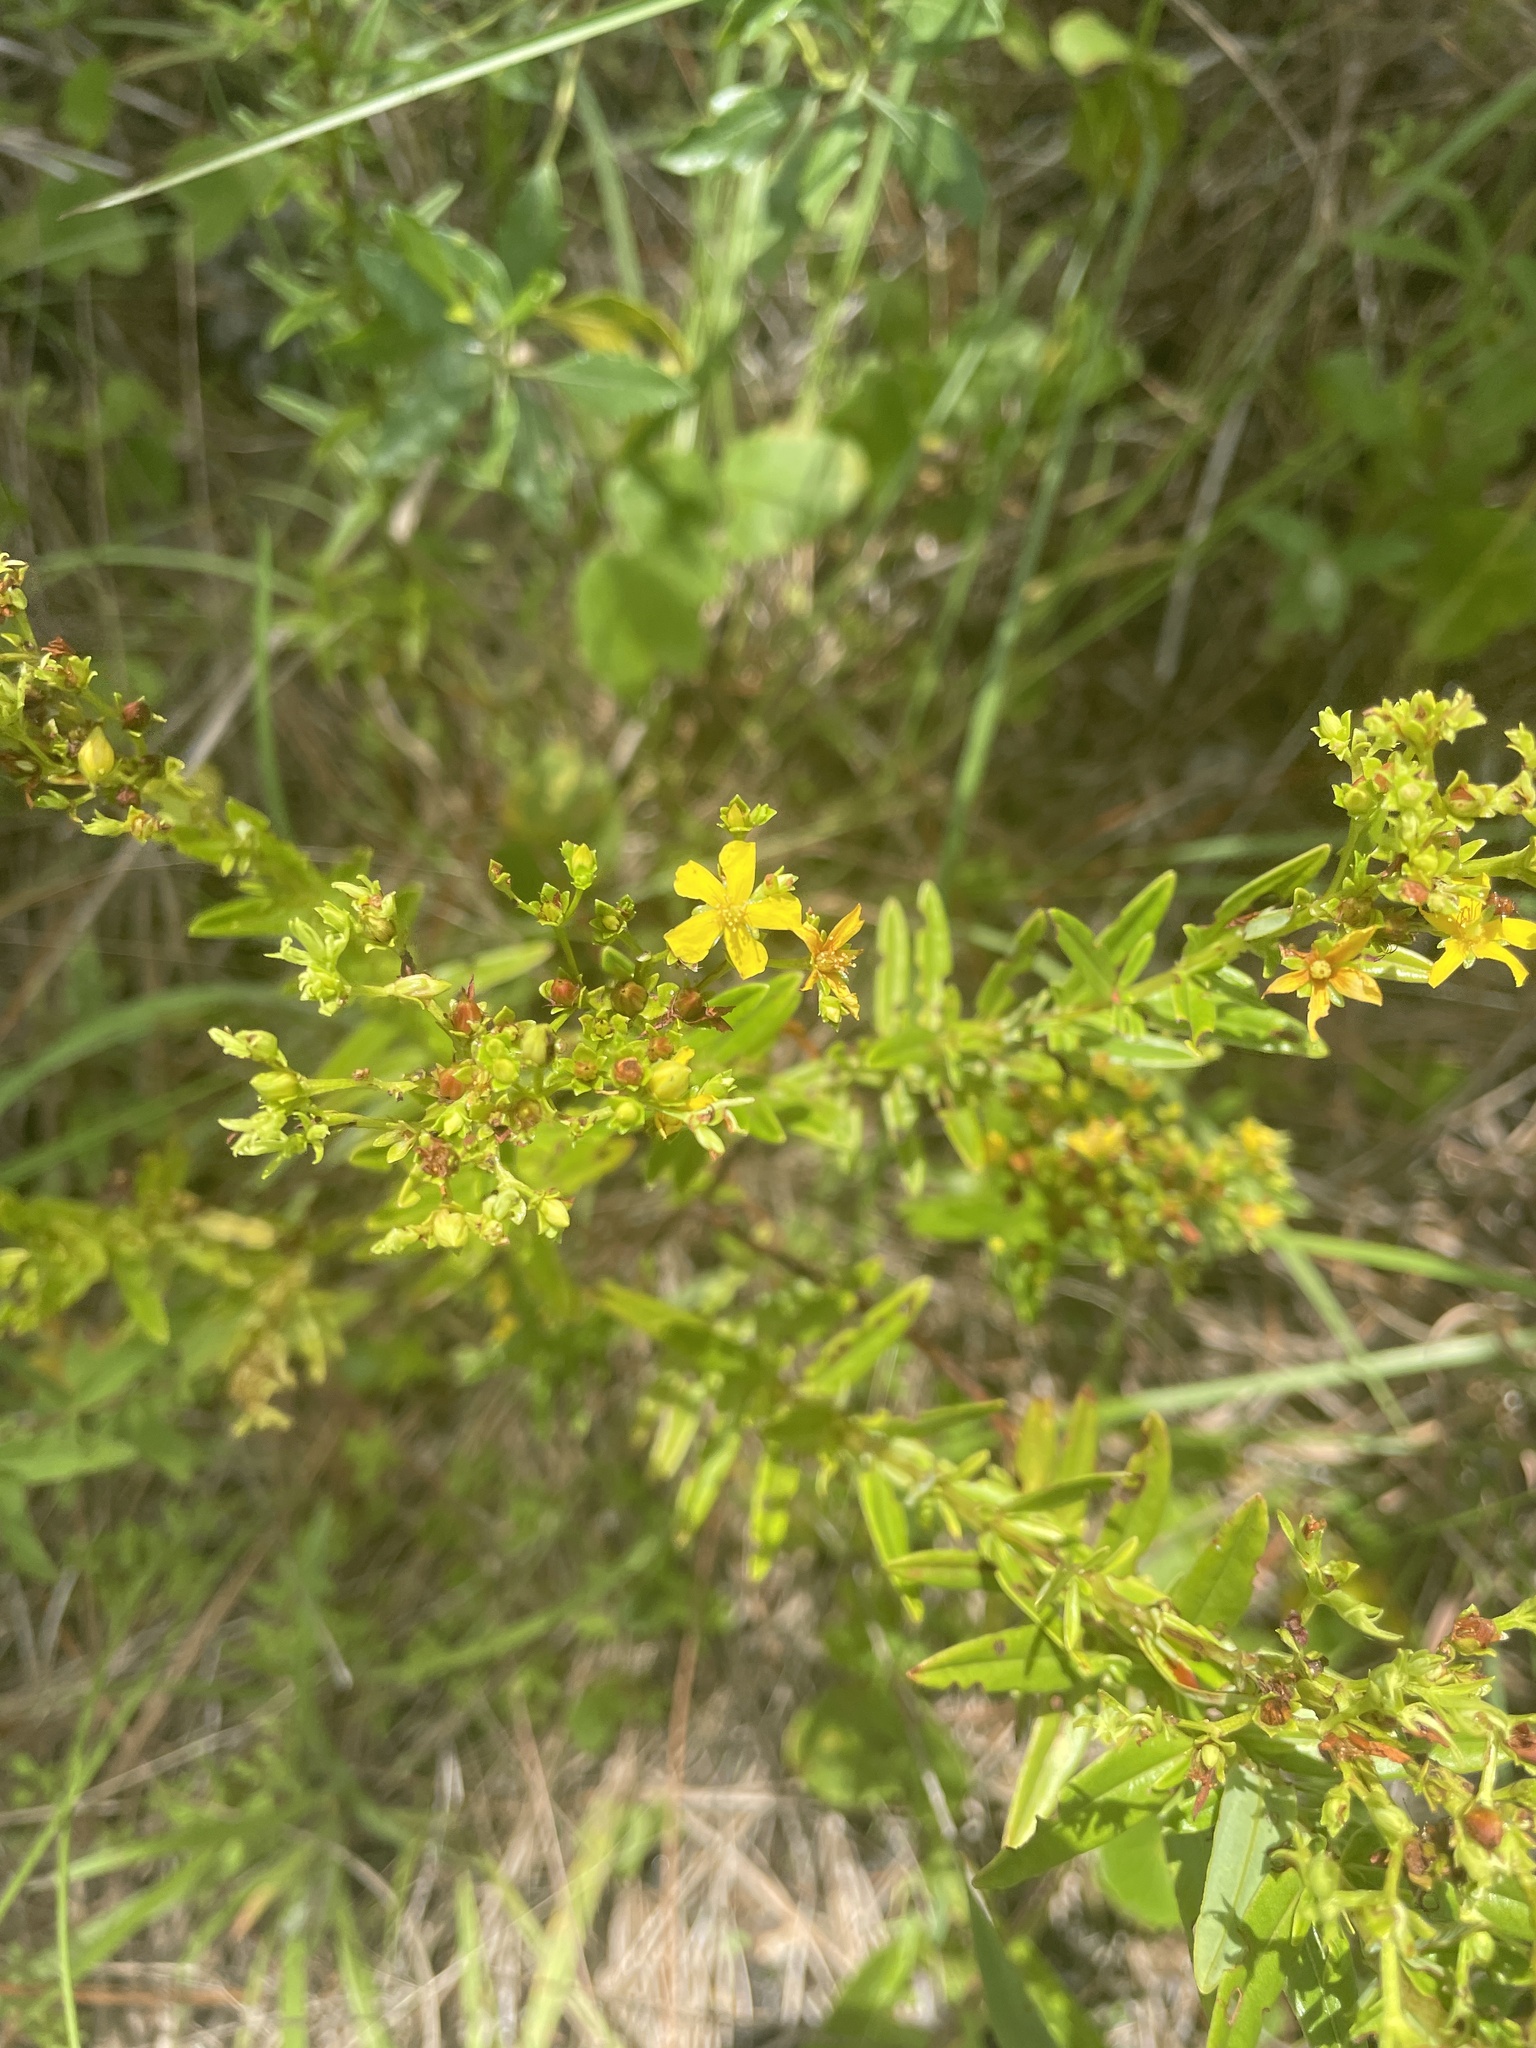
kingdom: Plantae
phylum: Tracheophyta
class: Magnoliopsida
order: Malpighiales
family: Hypericaceae
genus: Hypericum
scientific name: Hypericum cistifolium
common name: Round-pod st. john's-wort
